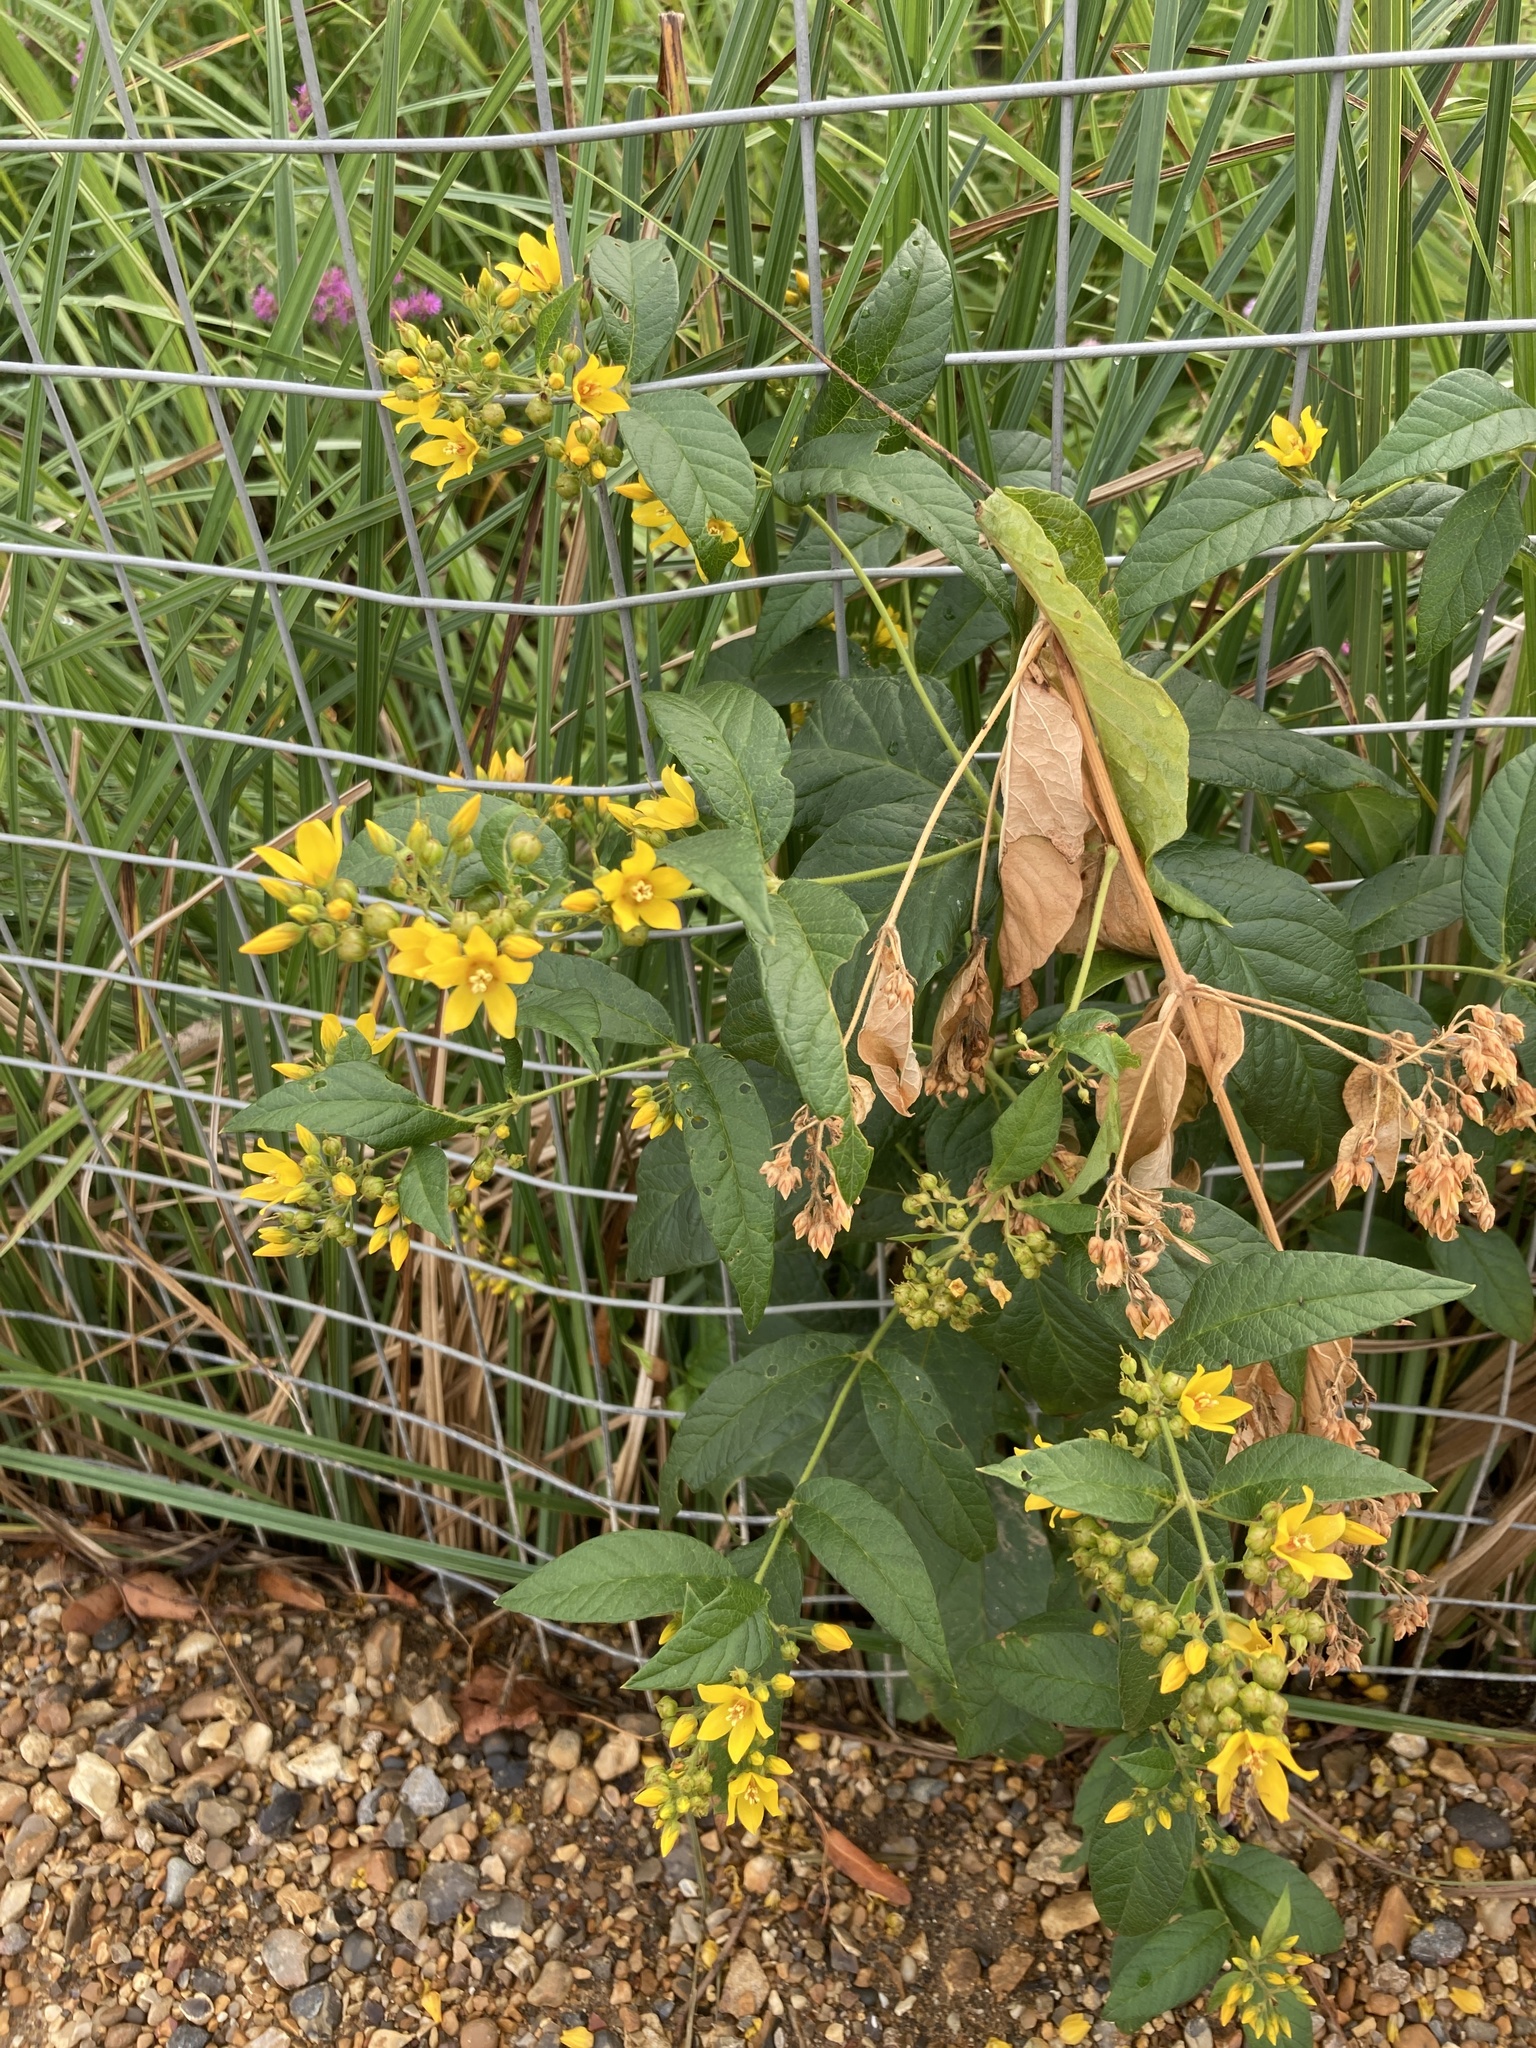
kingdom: Plantae
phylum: Tracheophyta
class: Magnoliopsida
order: Ericales
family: Primulaceae
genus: Lysimachia
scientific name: Lysimachia vulgaris
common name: Yellow loosestrife
